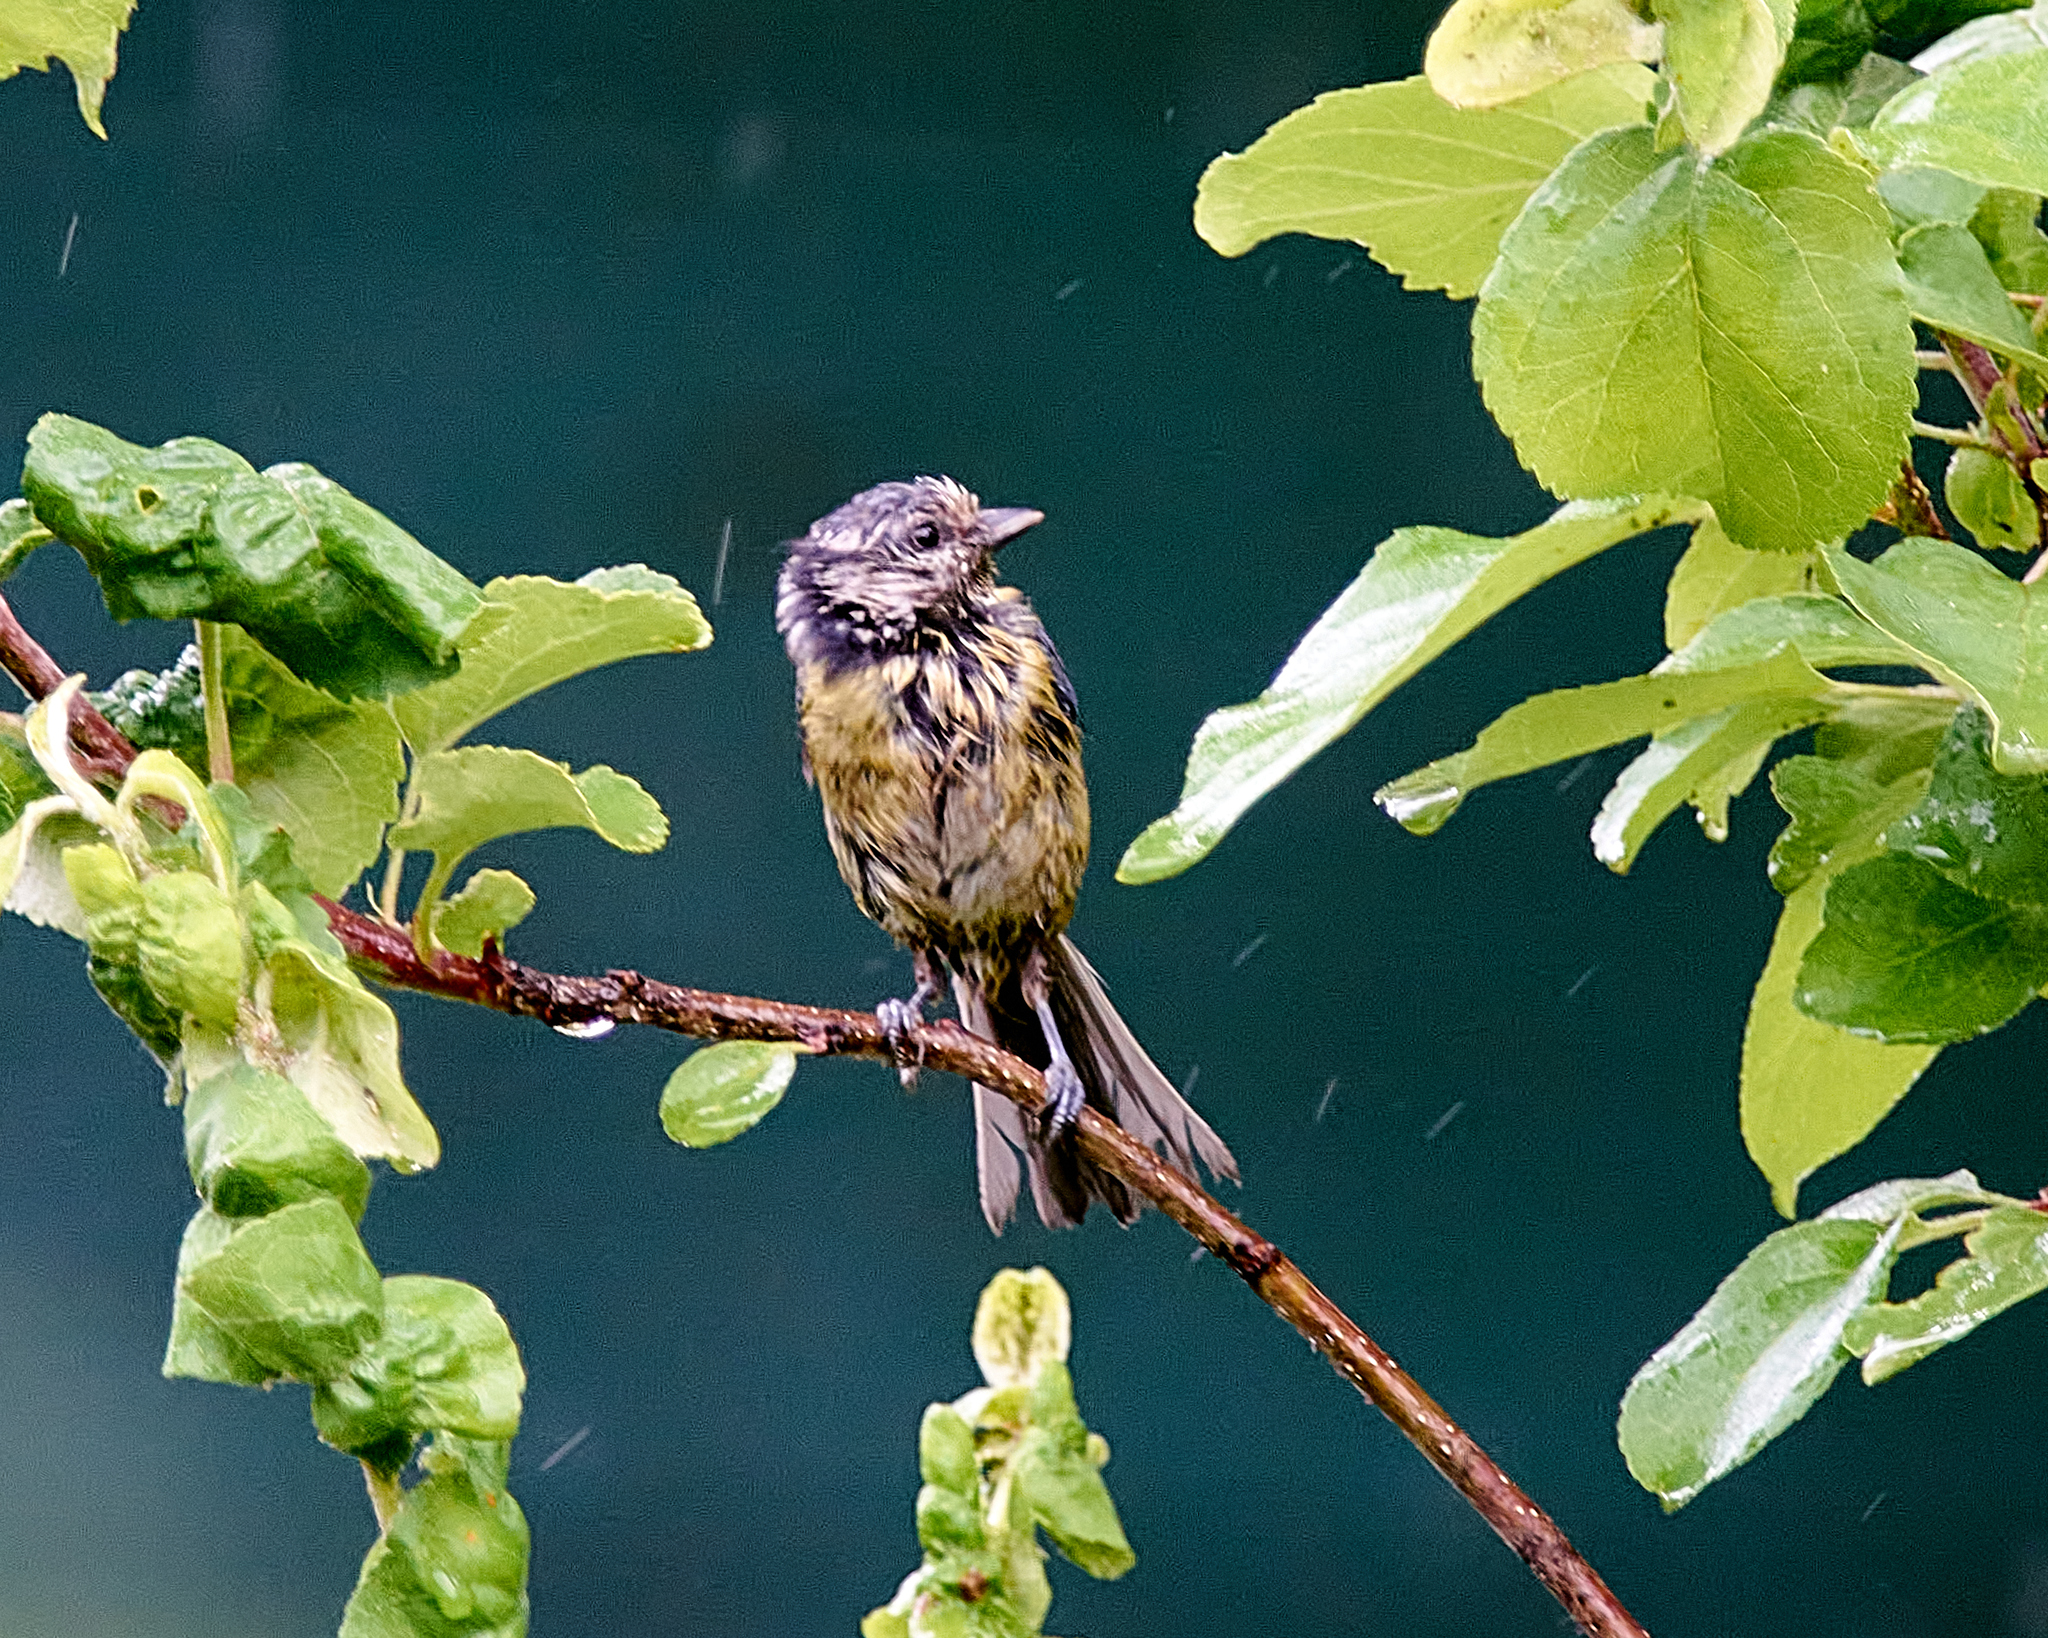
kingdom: Animalia
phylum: Chordata
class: Aves
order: Passeriformes
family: Paridae
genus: Cyanistes
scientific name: Cyanistes caeruleus
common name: Eurasian blue tit
